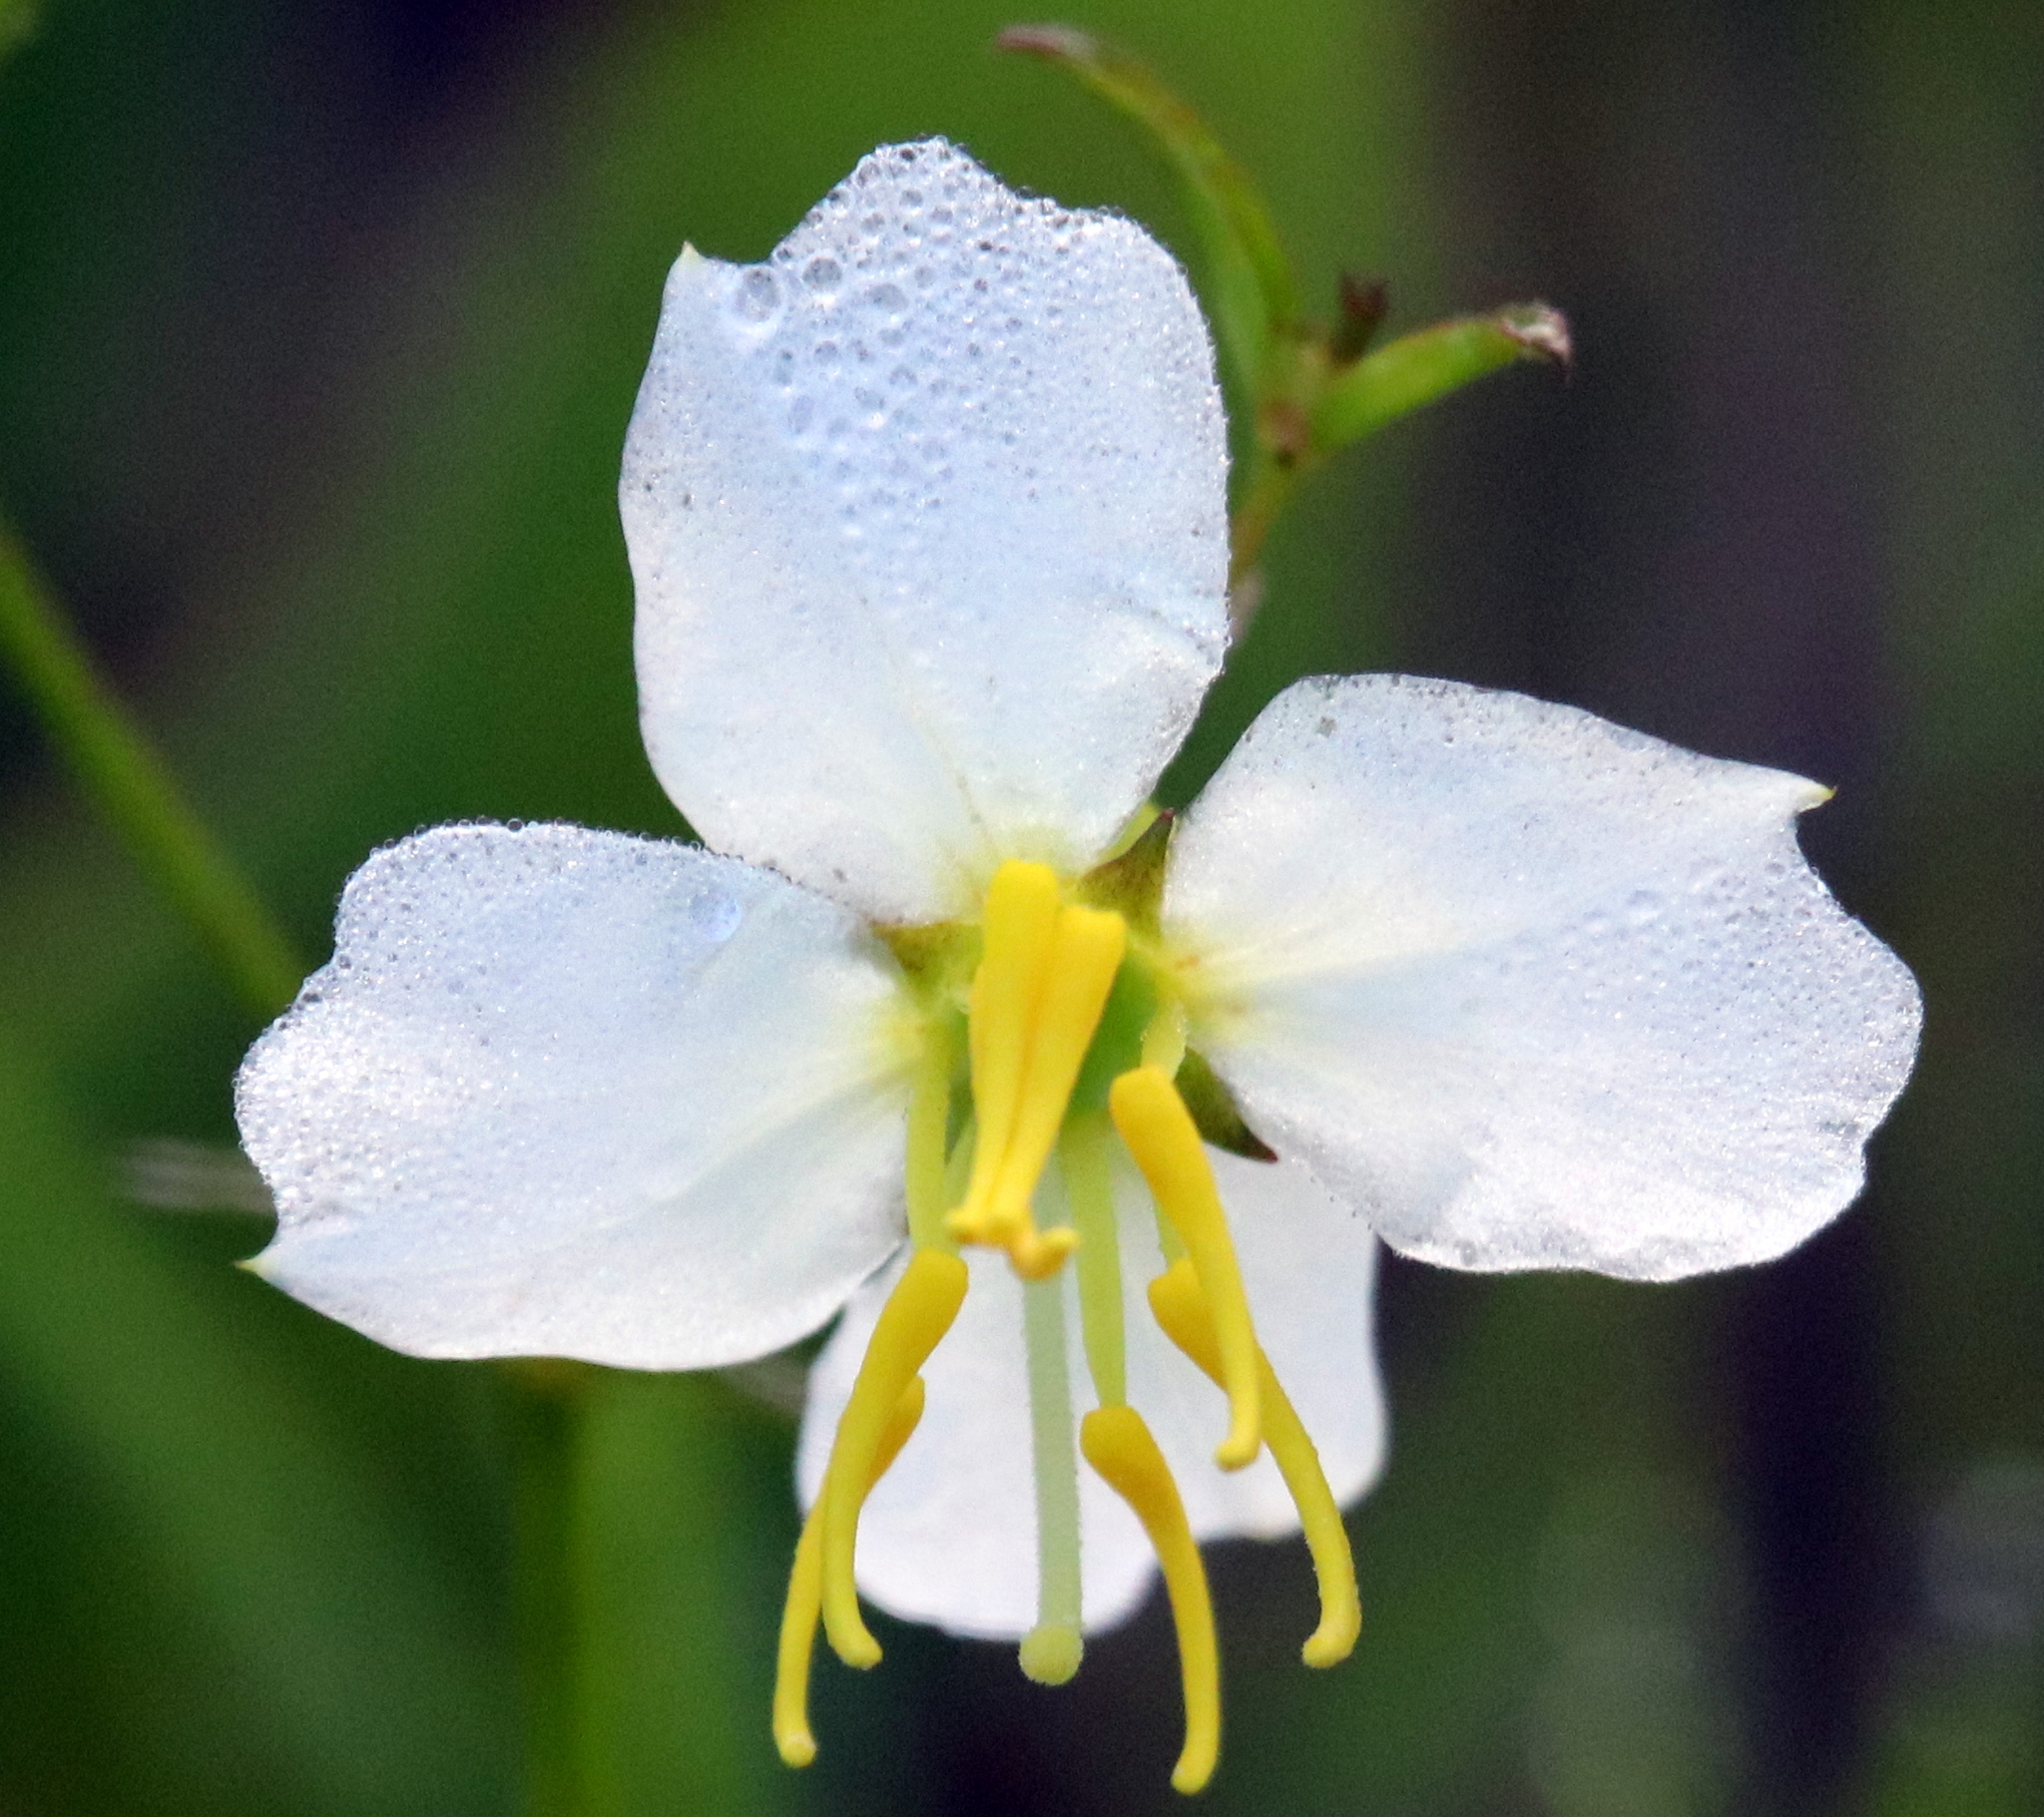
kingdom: Plantae
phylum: Tracheophyta
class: Magnoliopsida
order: Myrtales
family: Melastomataceae
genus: Rhexia
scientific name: Rhexia mariana
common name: Dull meadow-pitcher
